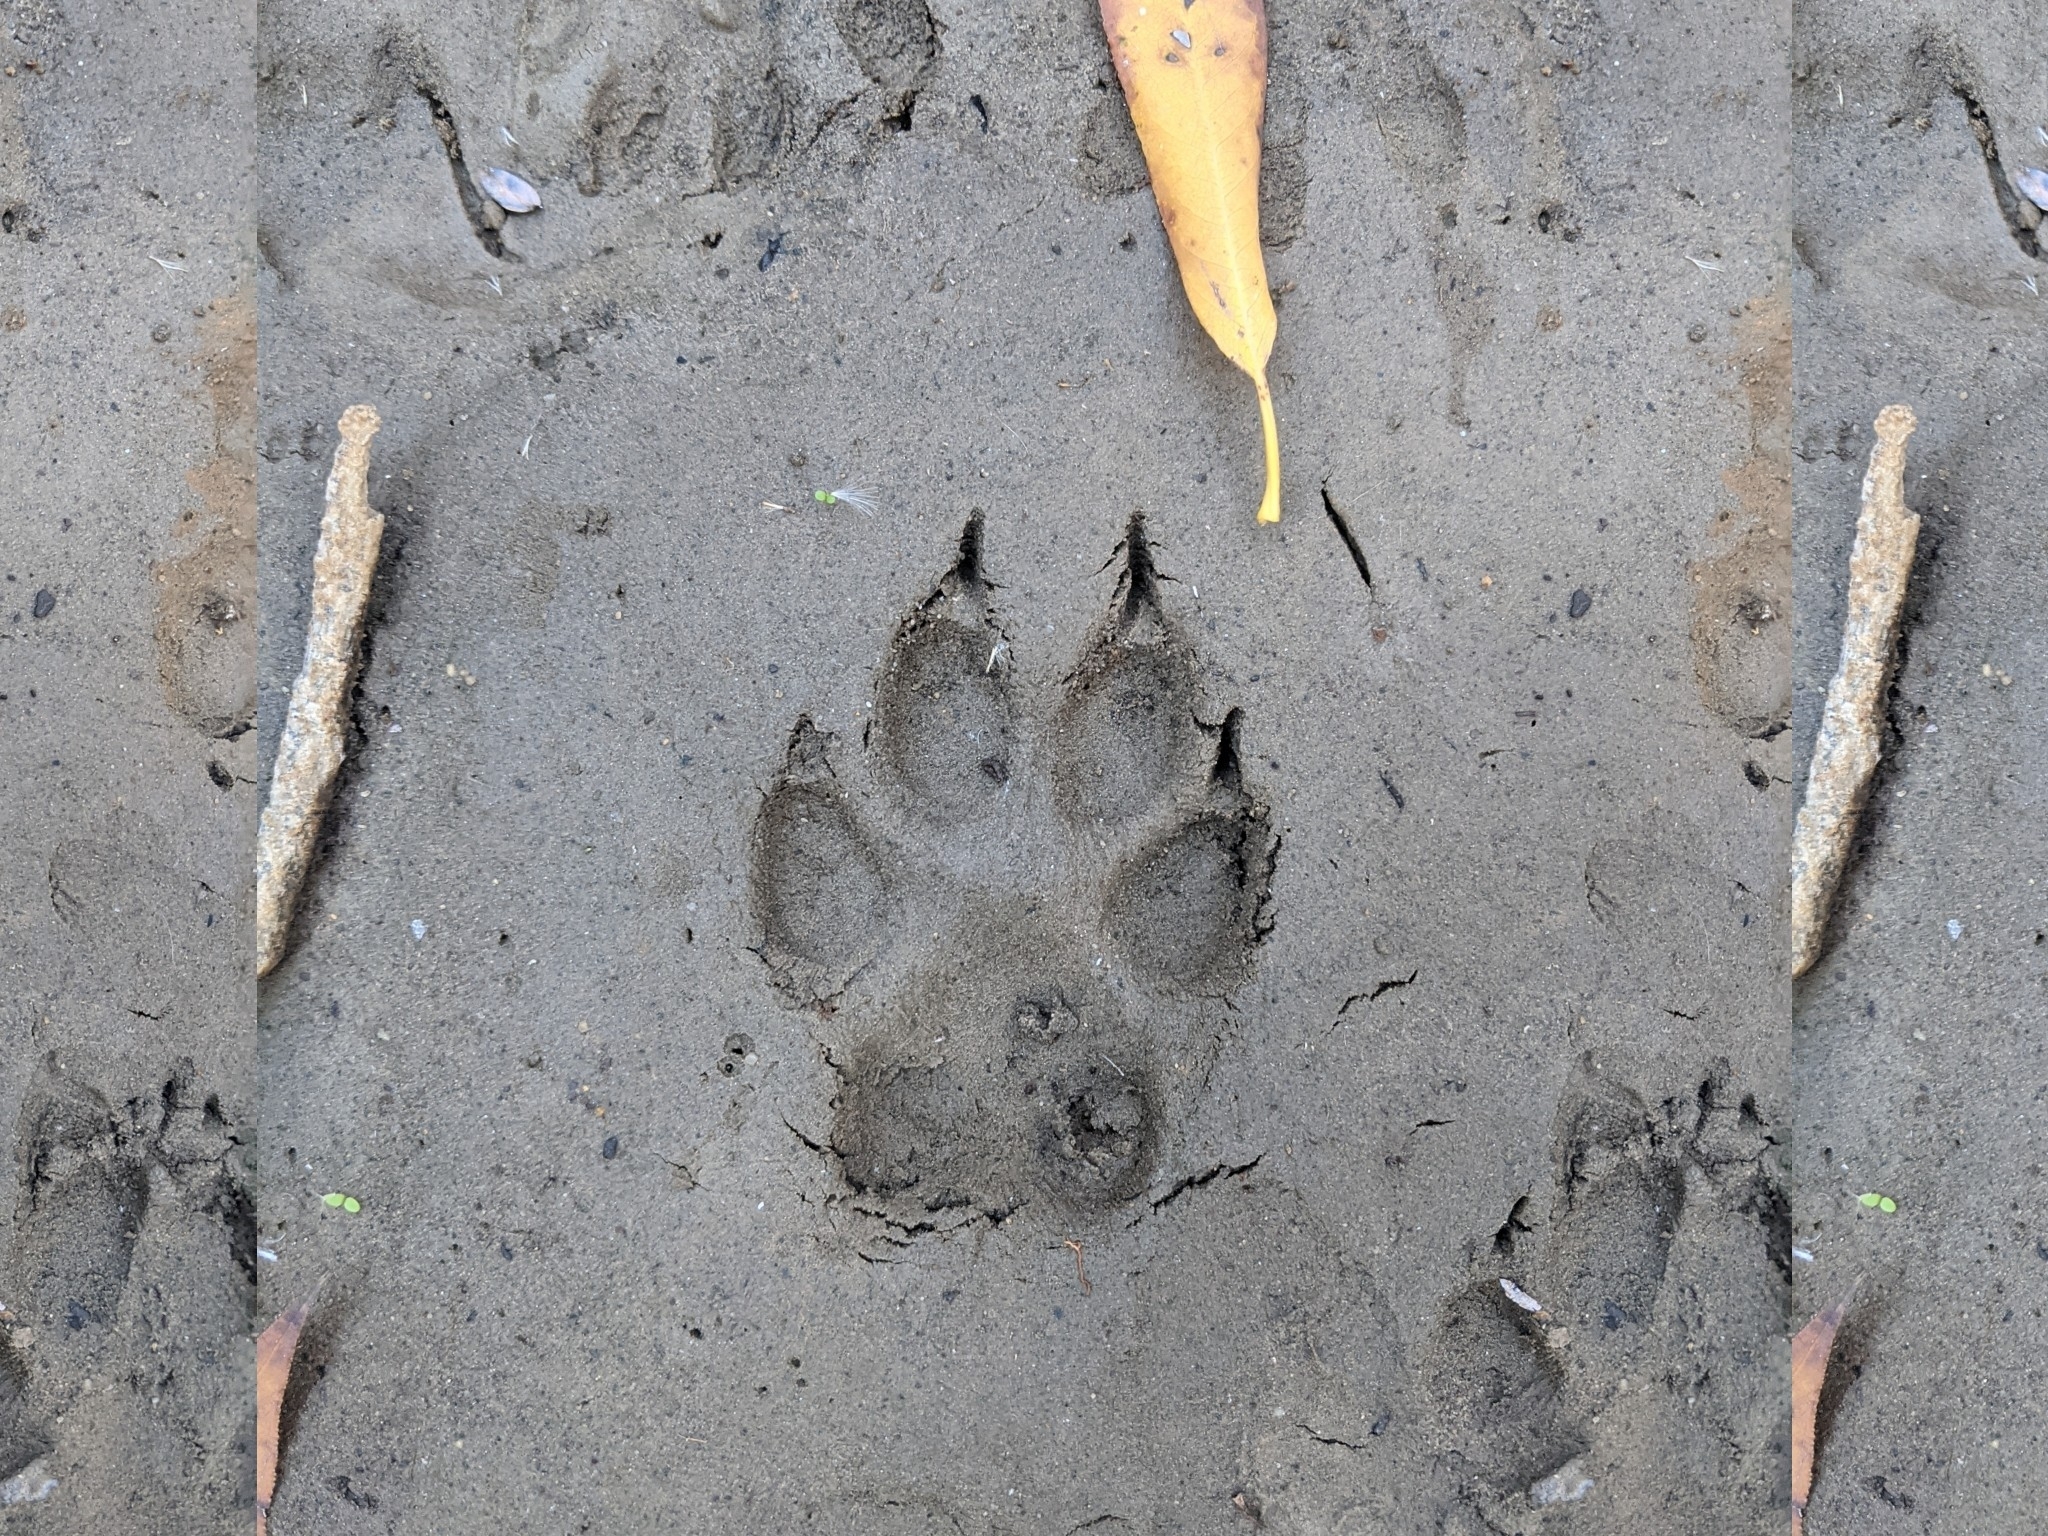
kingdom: Animalia
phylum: Chordata
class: Mammalia
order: Carnivora
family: Canidae
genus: Canis
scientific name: Canis latrans
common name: Coyote
